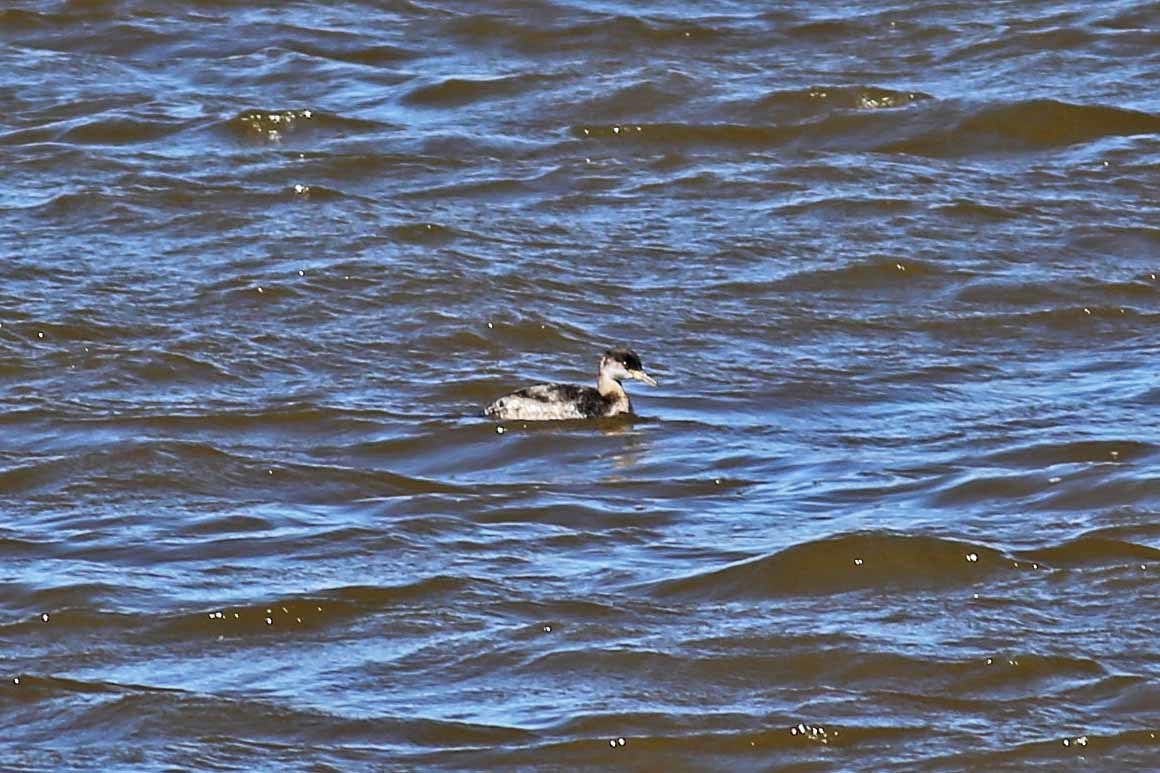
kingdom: Animalia
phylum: Chordata
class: Aves
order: Podicipediformes
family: Podicipedidae
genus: Podiceps
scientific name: Podiceps grisegena
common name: Red-necked grebe
